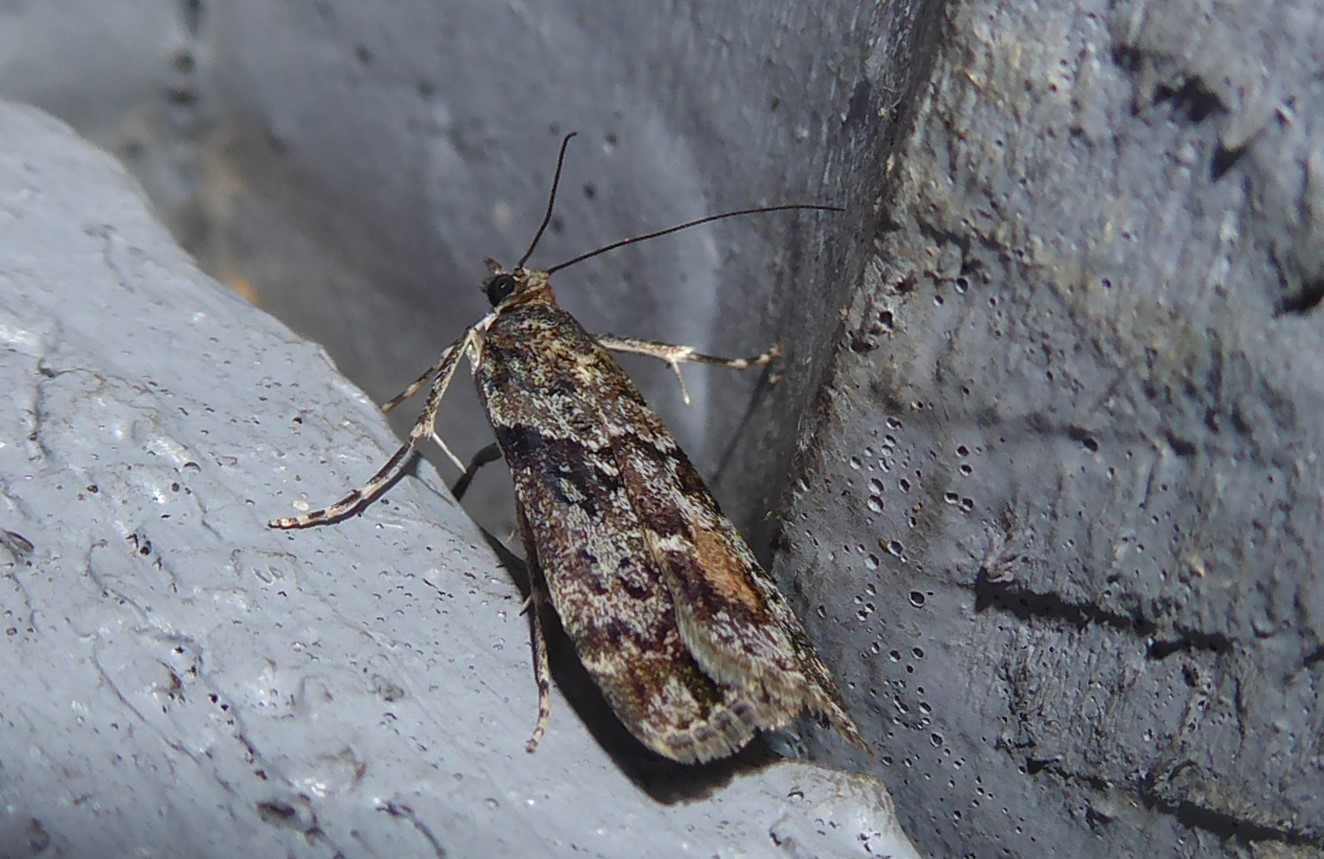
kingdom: Animalia
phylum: Arthropoda
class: Insecta
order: Lepidoptera
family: Crambidae
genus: Eudonia
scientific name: Eudonia submarginalis
